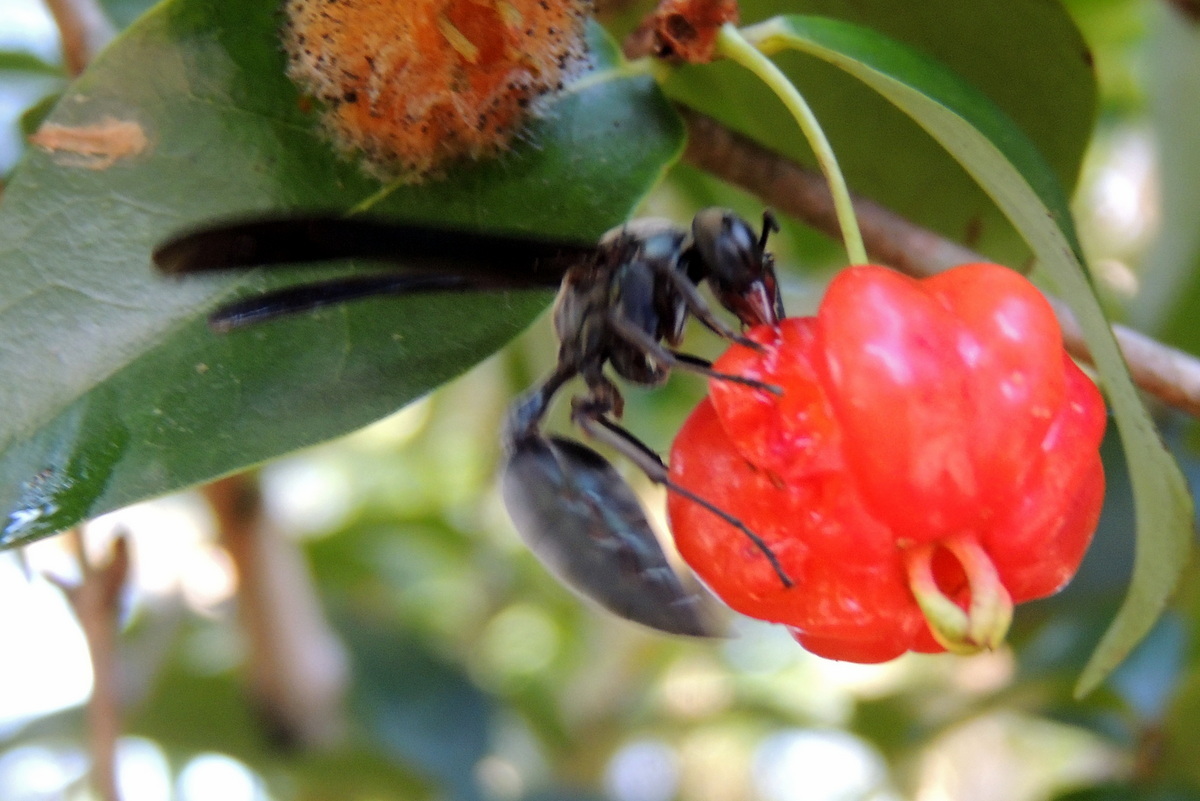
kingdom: Animalia
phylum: Arthropoda
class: Insecta
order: Hymenoptera
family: Vespidae
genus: Synoeca
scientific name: Synoeca septentrionalis
